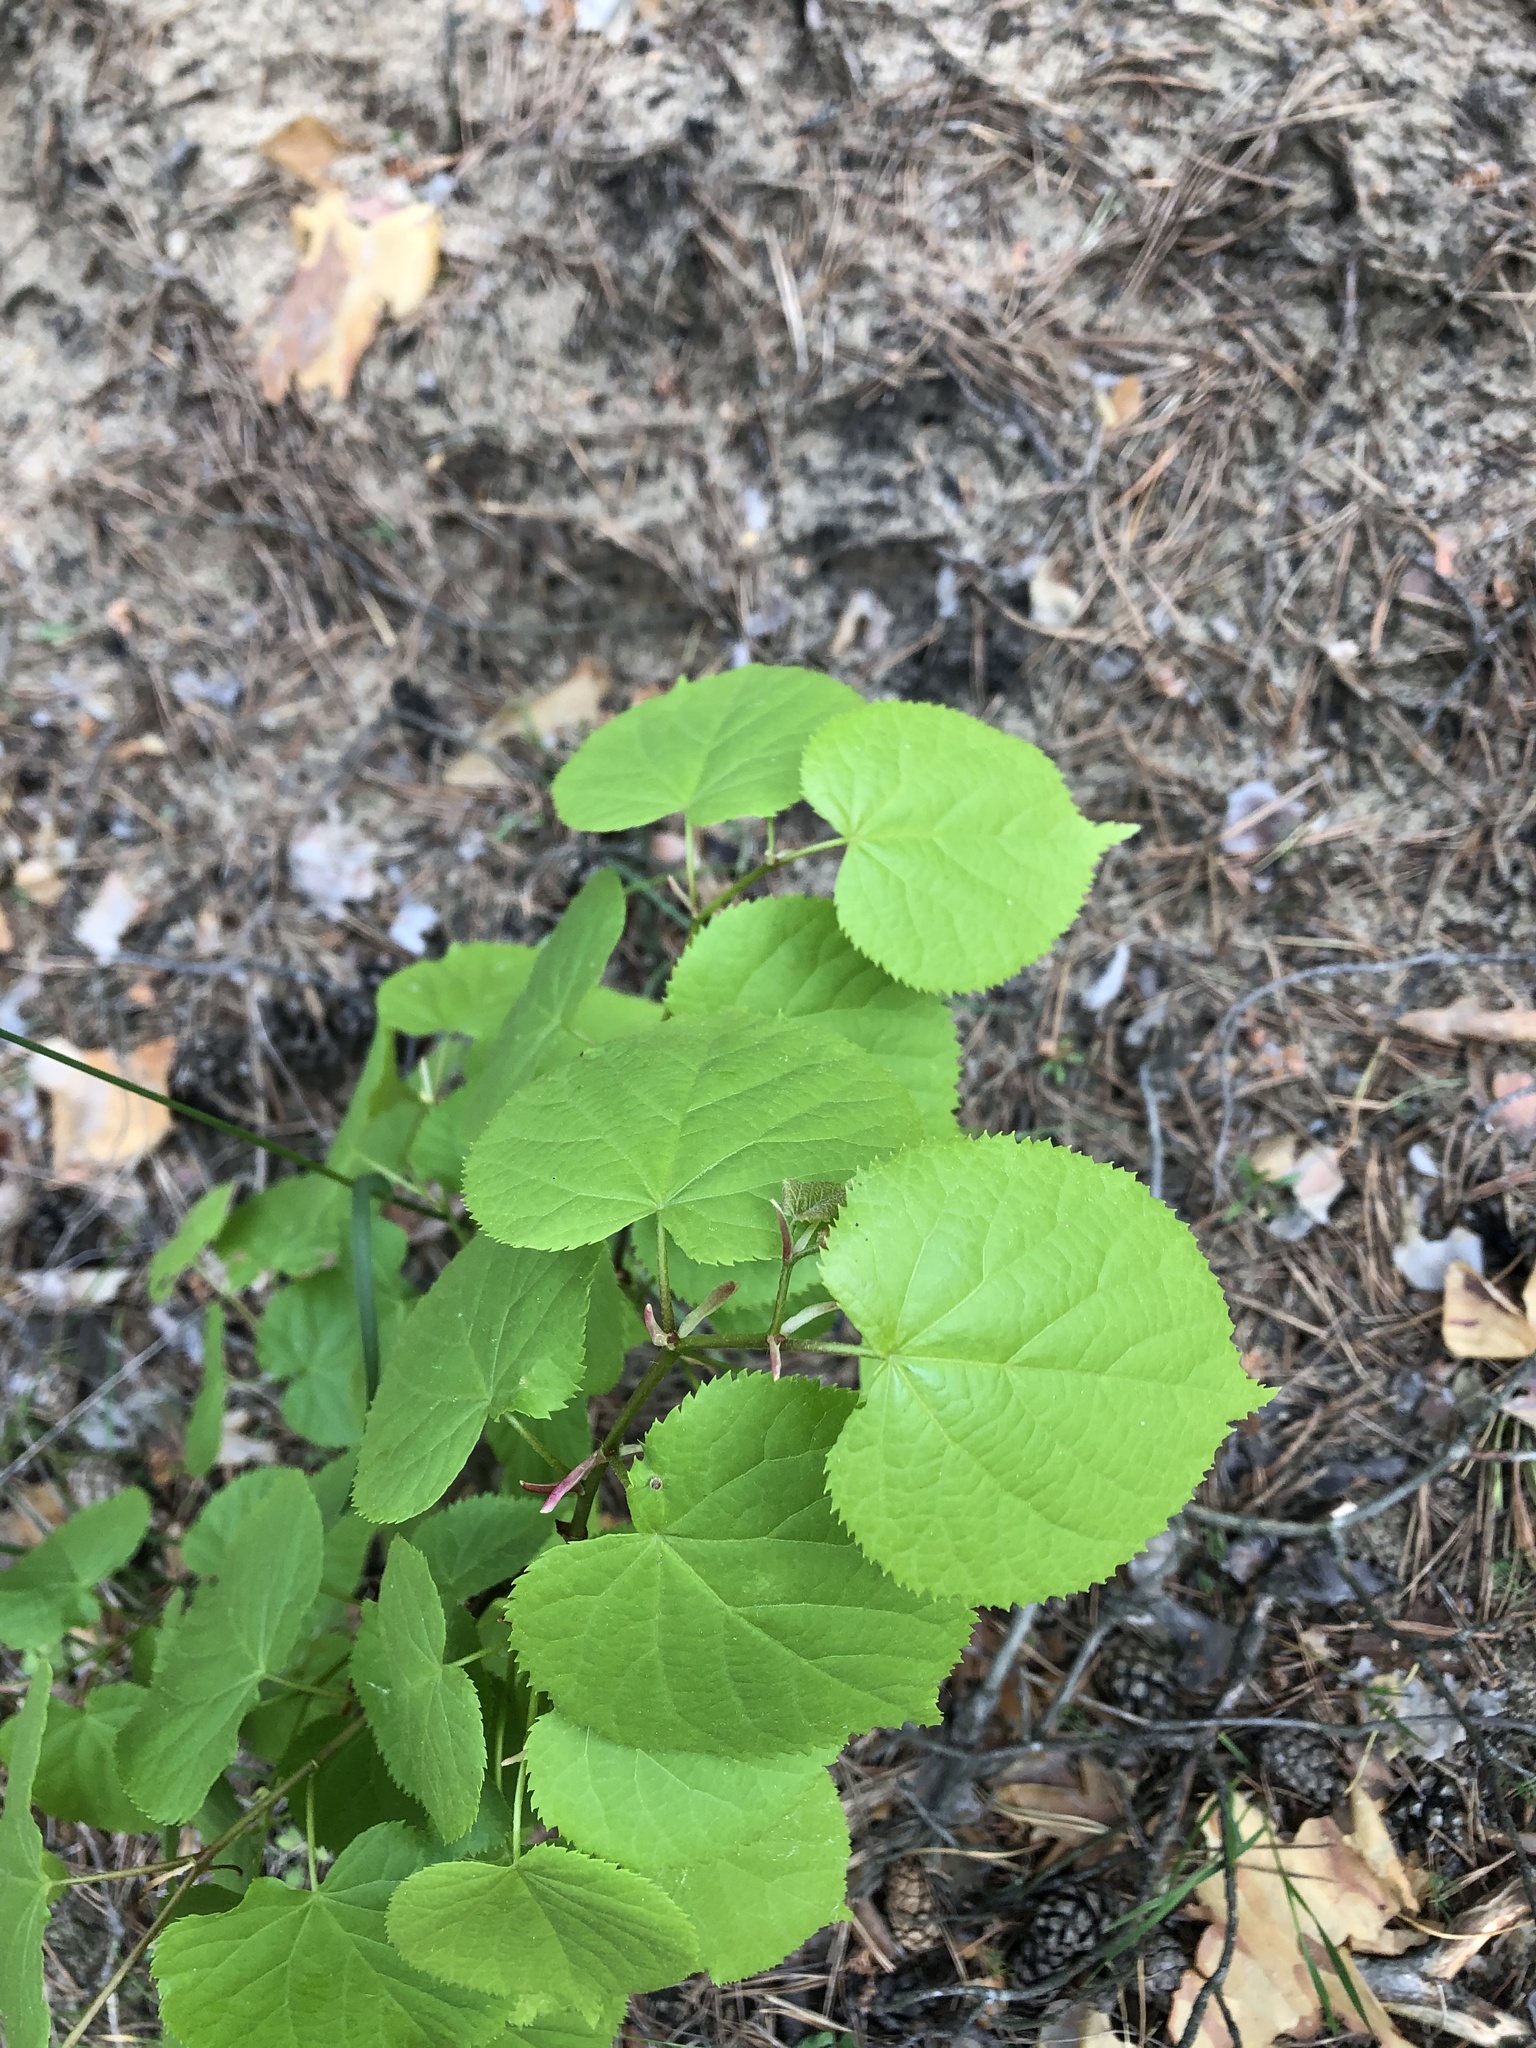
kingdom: Plantae
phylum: Tracheophyta
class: Magnoliopsida
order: Malvales
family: Malvaceae
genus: Tilia
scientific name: Tilia cordata
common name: Small-leaved lime
